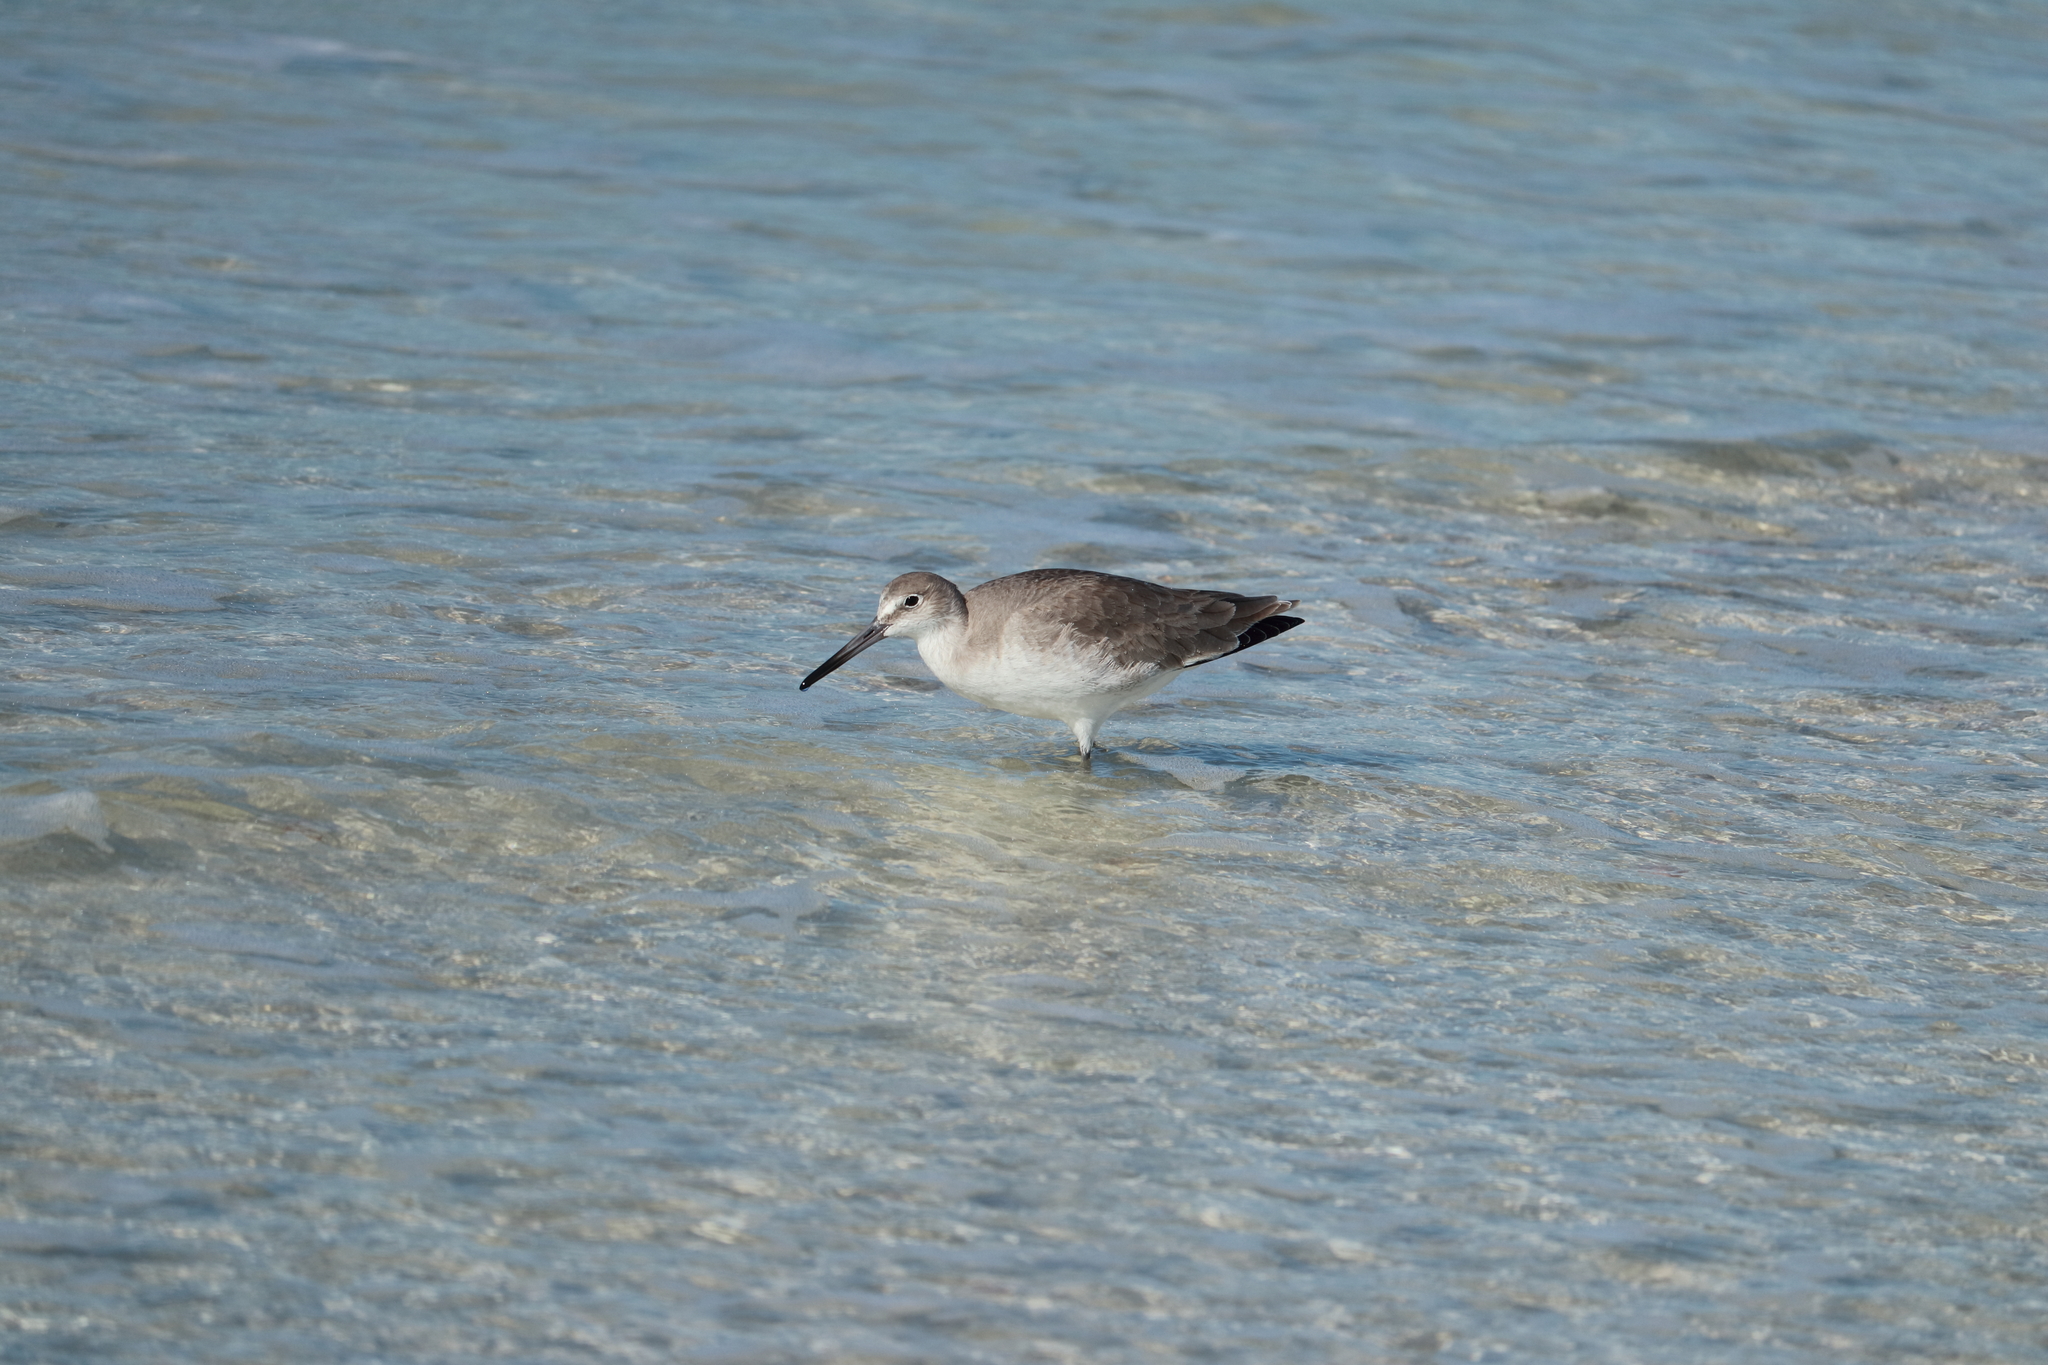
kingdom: Animalia
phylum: Chordata
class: Aves
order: Charadriiformes
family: Scolopacidae
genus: Tringa
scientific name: Tringa semipalmata
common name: Willet
